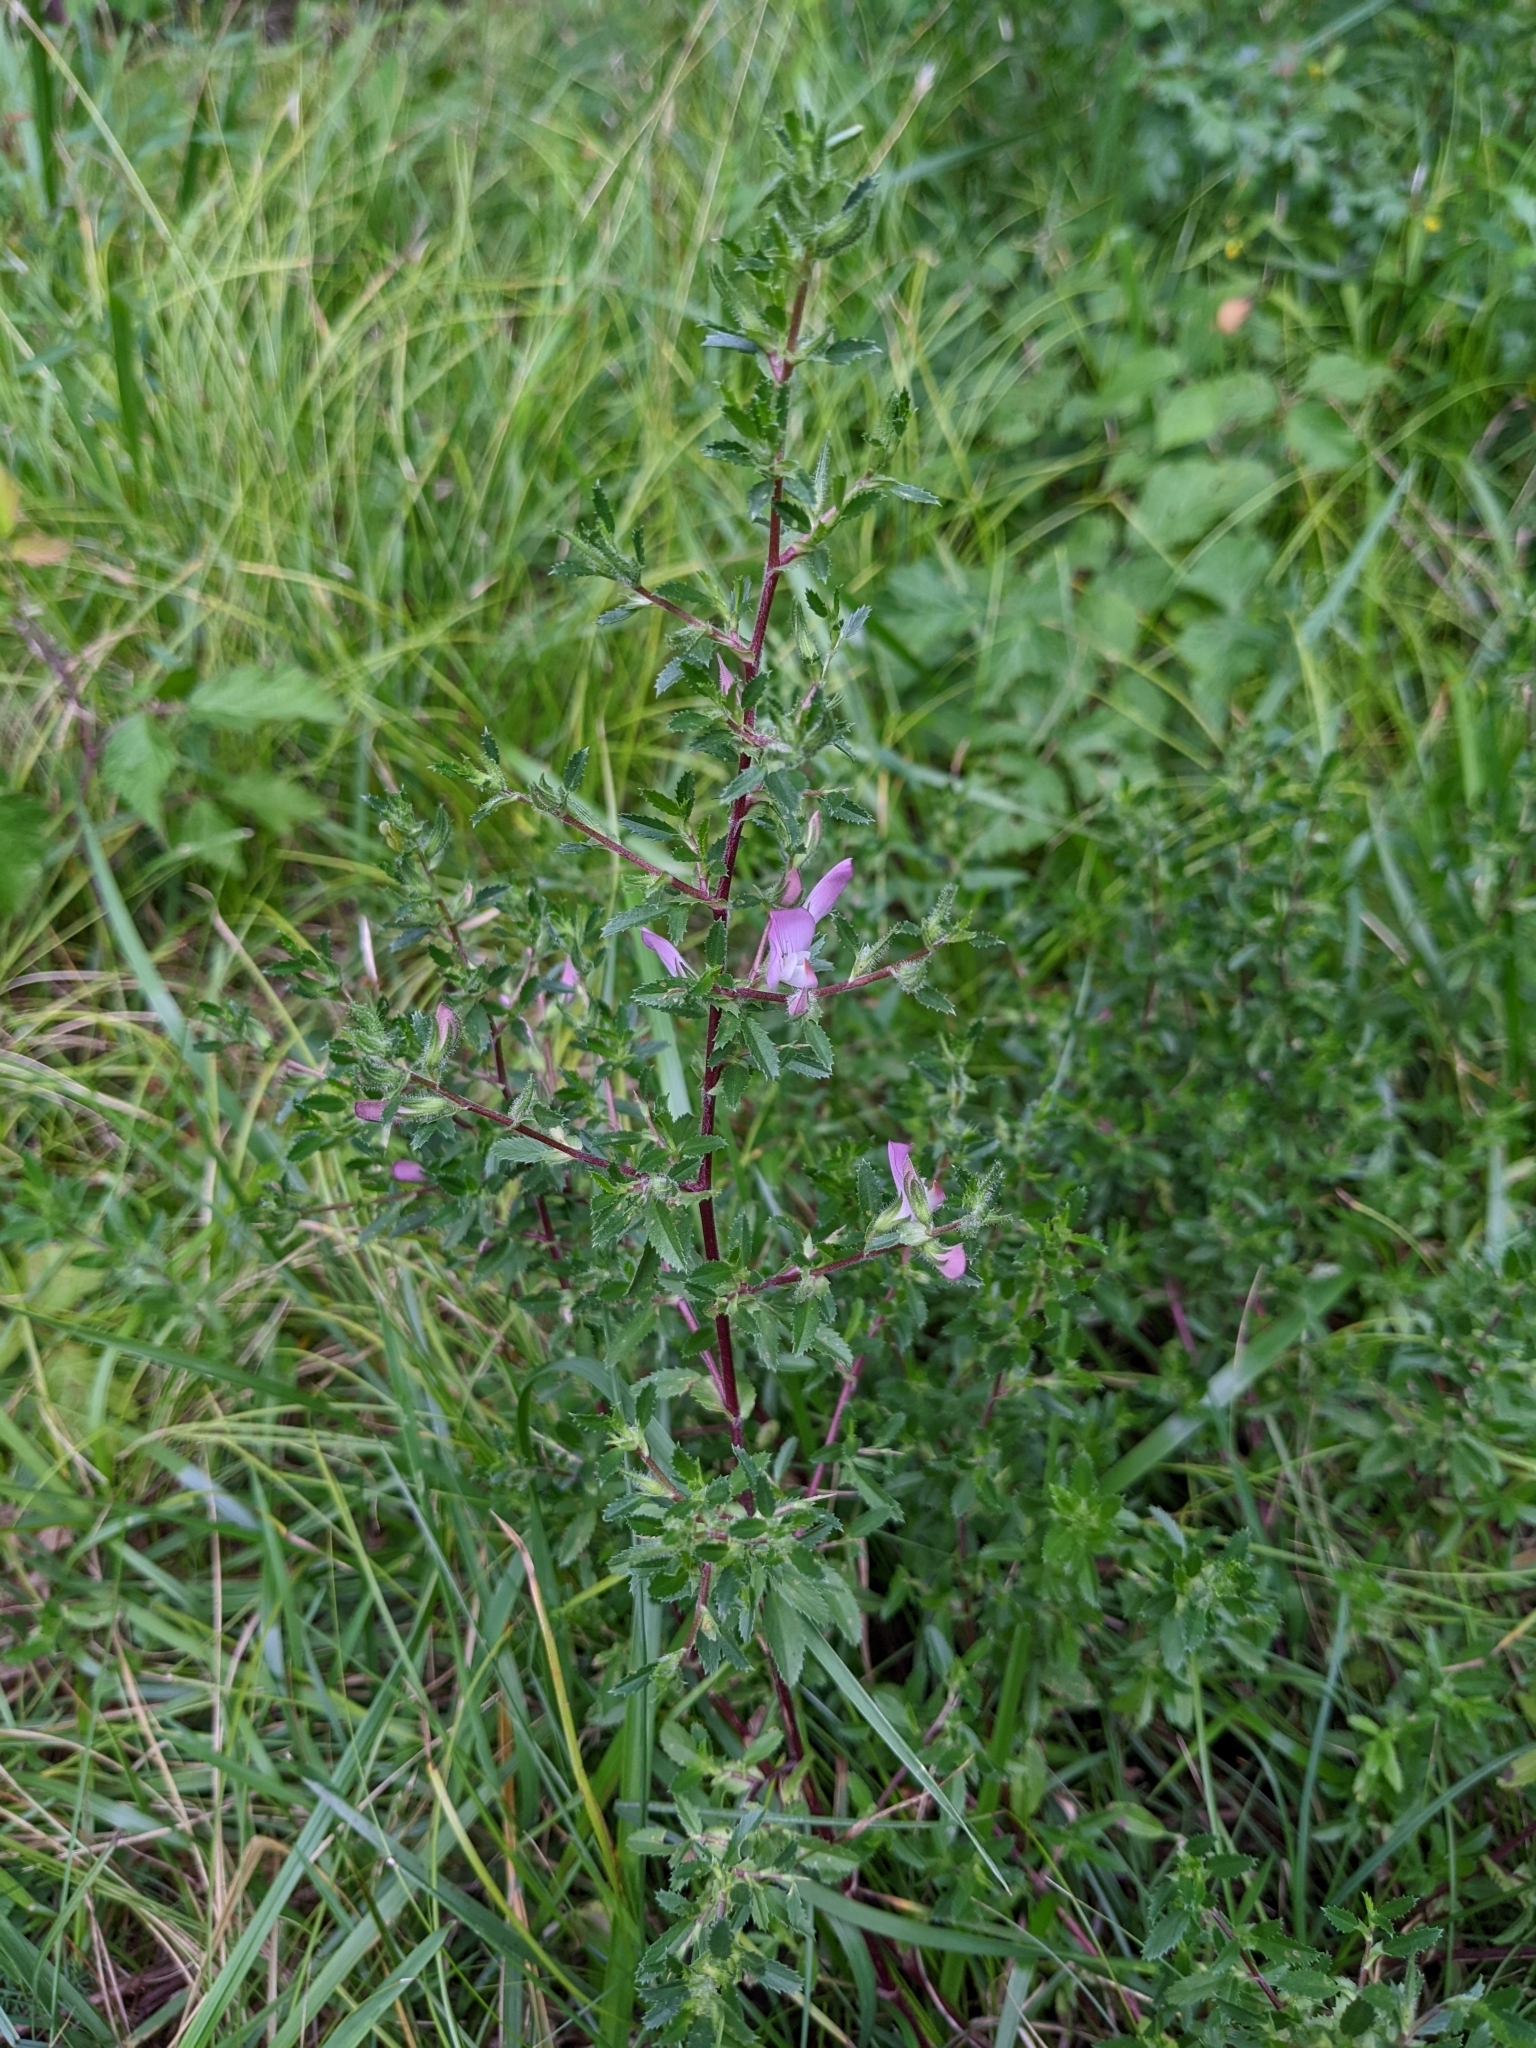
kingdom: Plantae
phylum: Tracheophyta
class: Magnoliopsida
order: Fabales
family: Fabaceae
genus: Ononis
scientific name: Ononis spinosa
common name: Spiny restharrow
